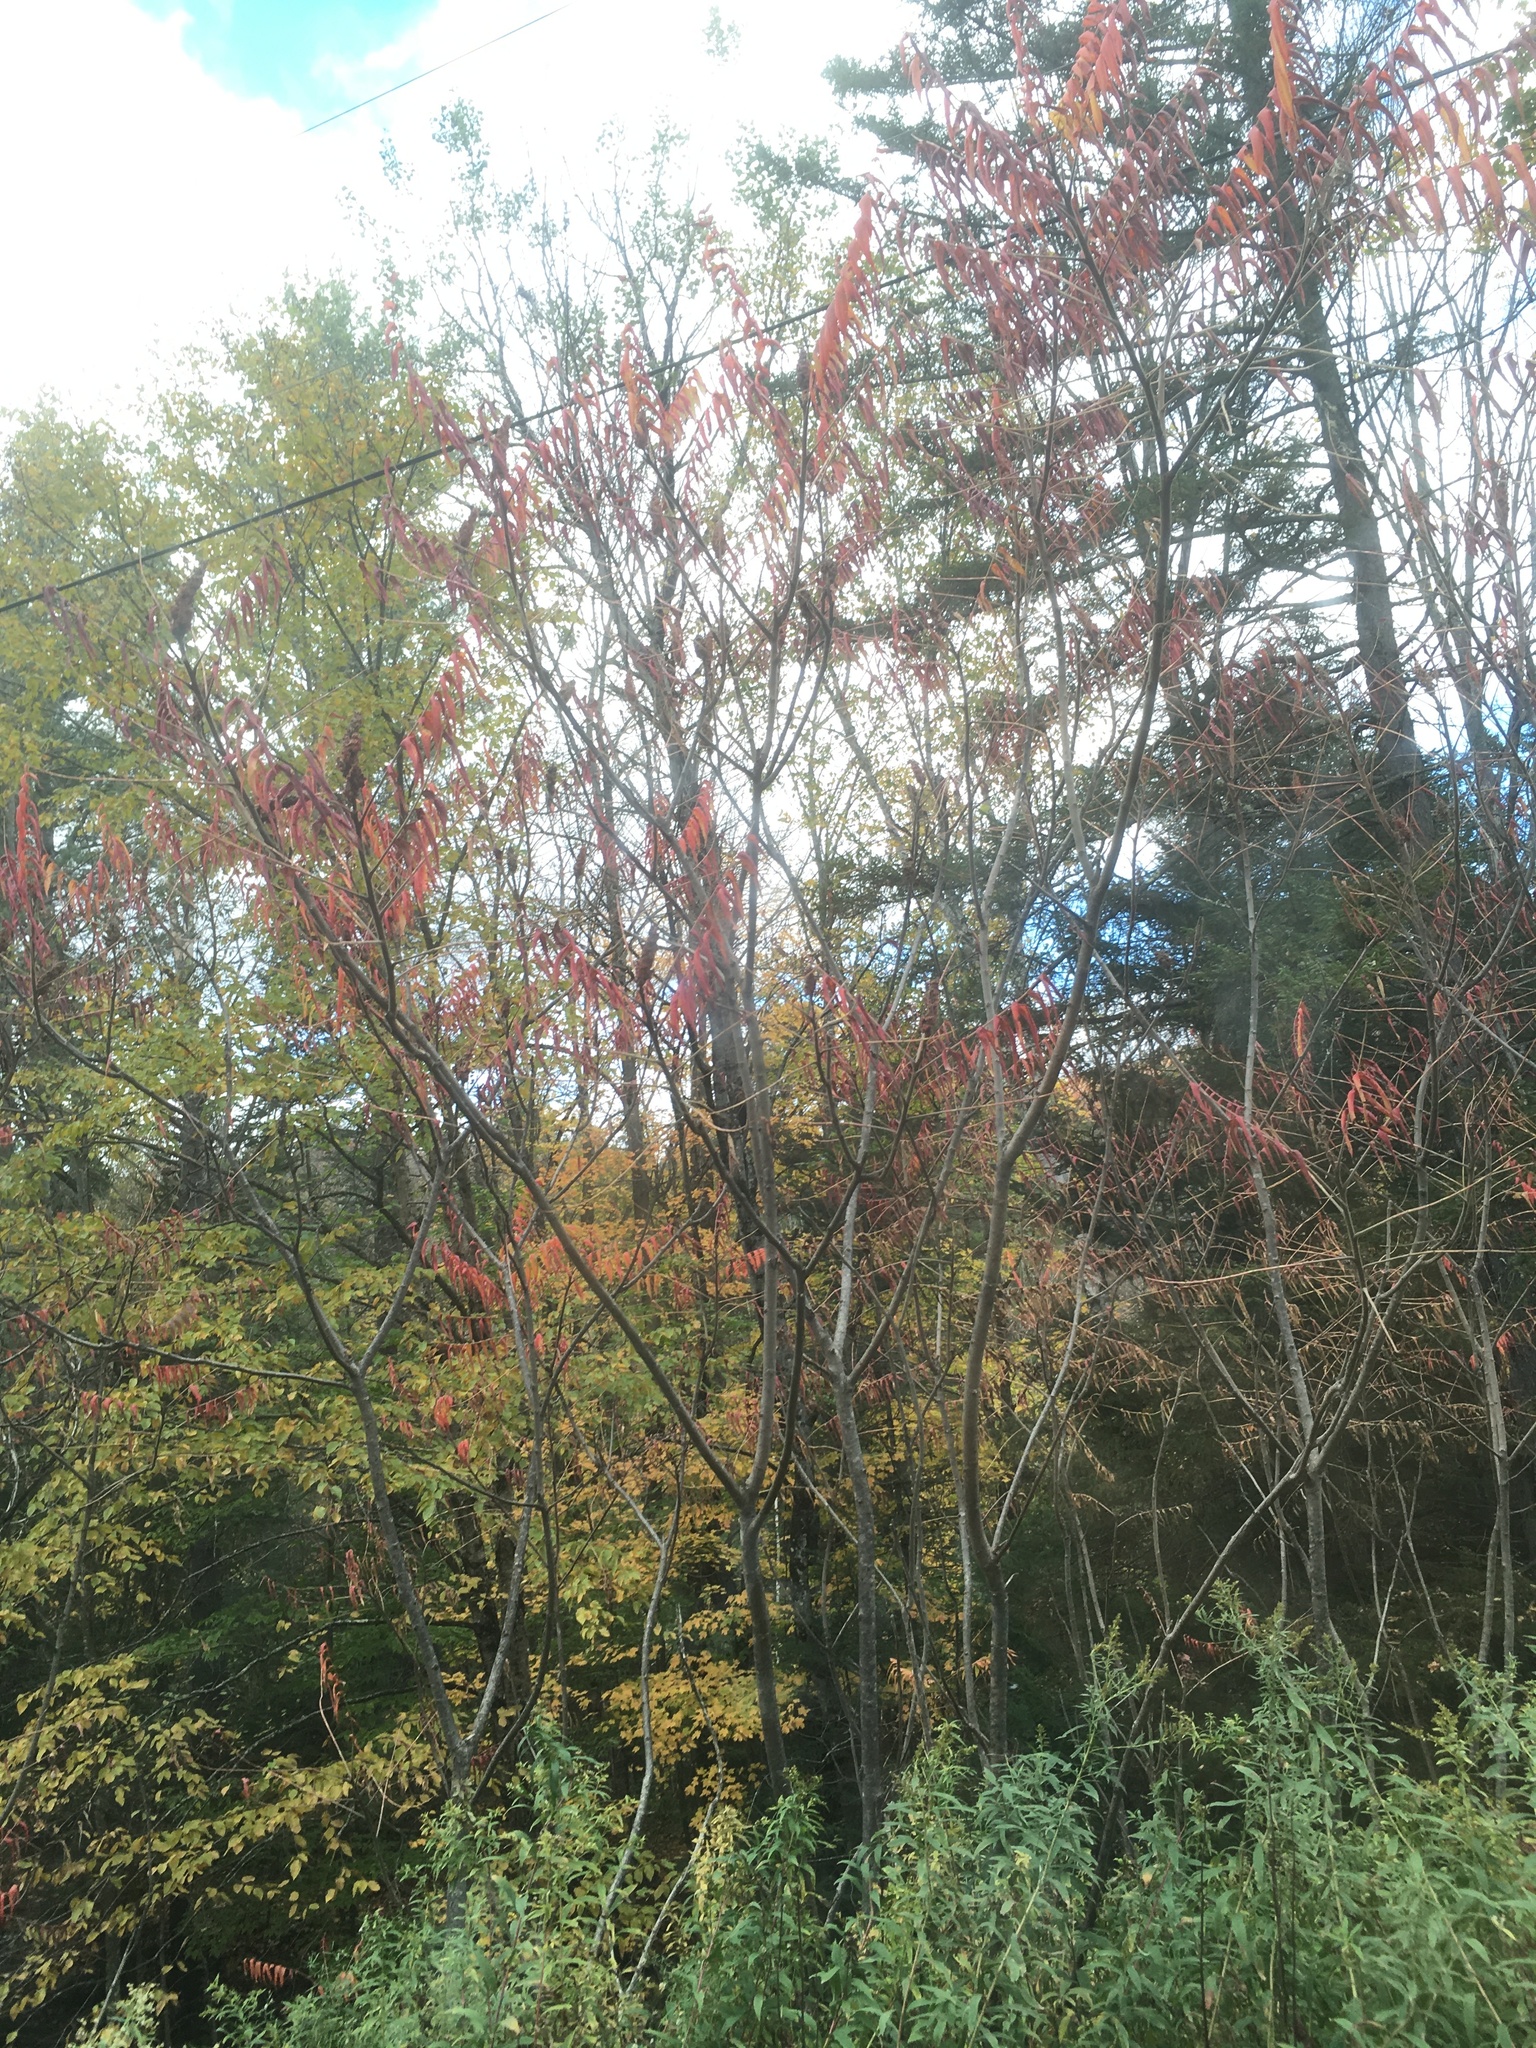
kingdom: Plantae
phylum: Tracheophyta
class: Magnoliopsida
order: Sapindales
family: Anacardiaceae
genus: Rhus
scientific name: Rhus typhina
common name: Staghorn sumac
